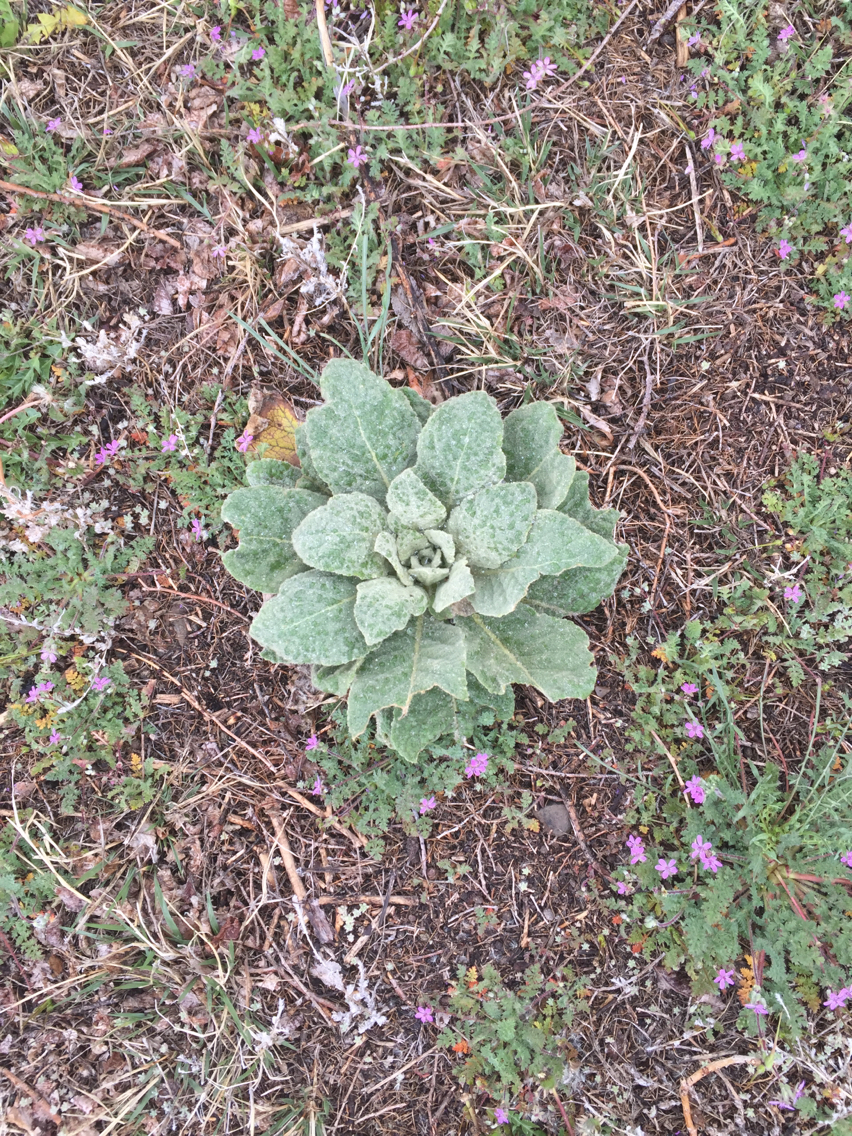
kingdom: Plantae
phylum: Tracheophyta
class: Magnoliopsida
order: Lamiales
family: Scrophulariaceae
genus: Verbascum
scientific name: Verbascum thapsus
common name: Common mullein
